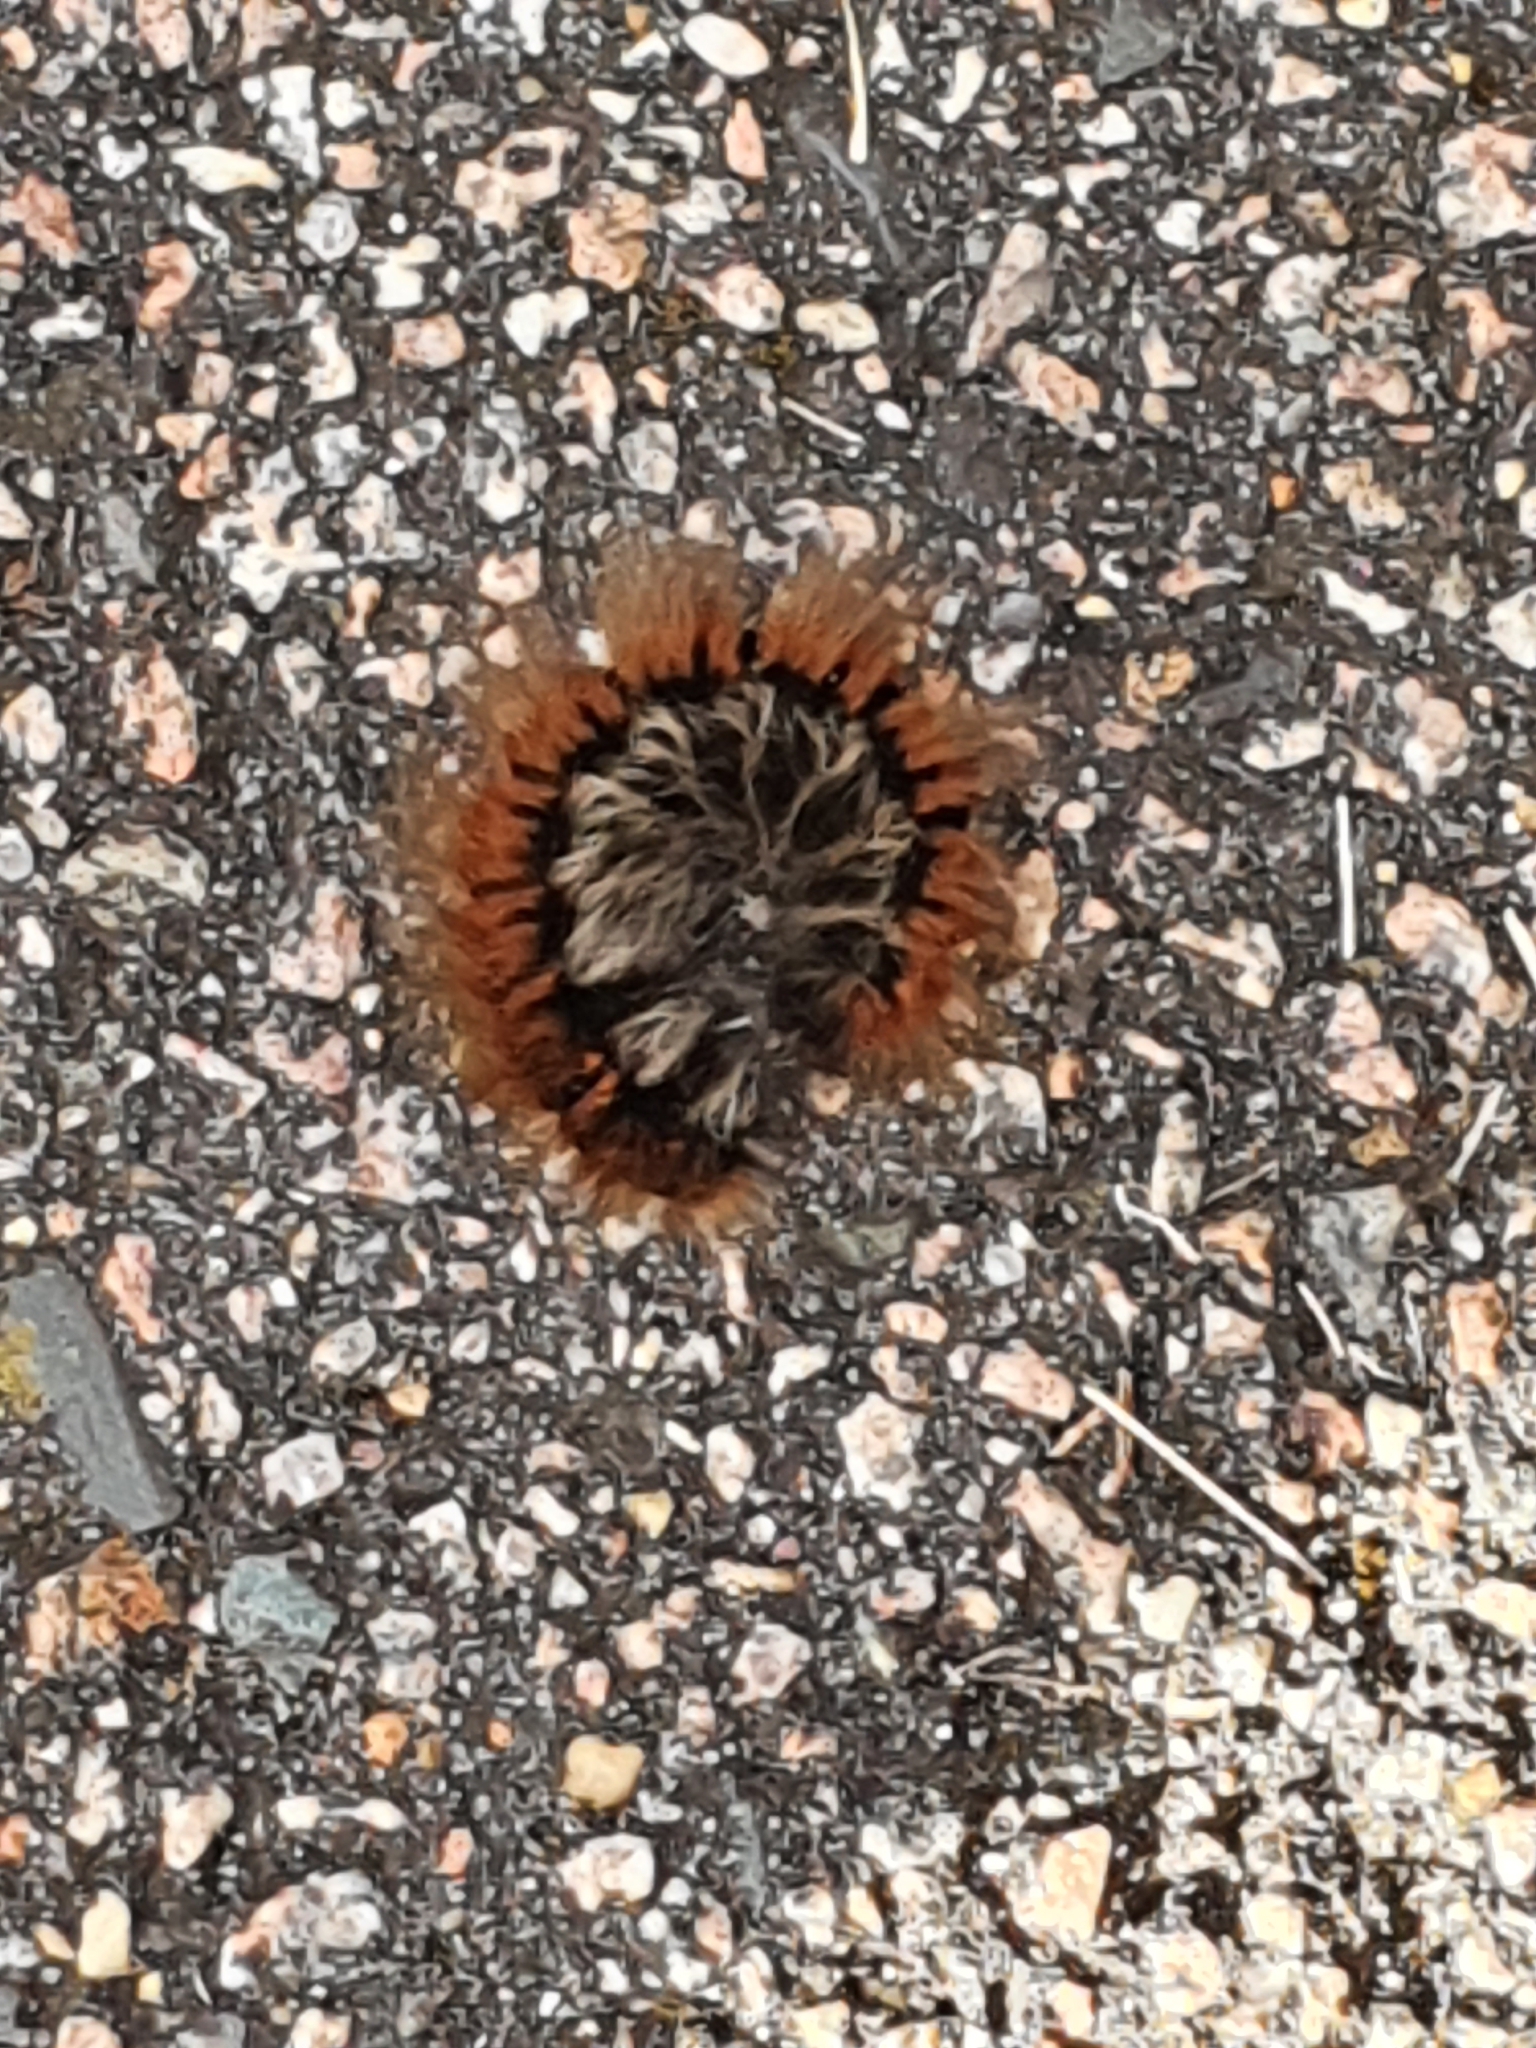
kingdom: Animalia
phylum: Arthropoda
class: Insecta
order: Lepidoptera
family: Lasiocampidae
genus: Macrothylacia
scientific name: Macrothylacia rubi
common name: Fox moth
